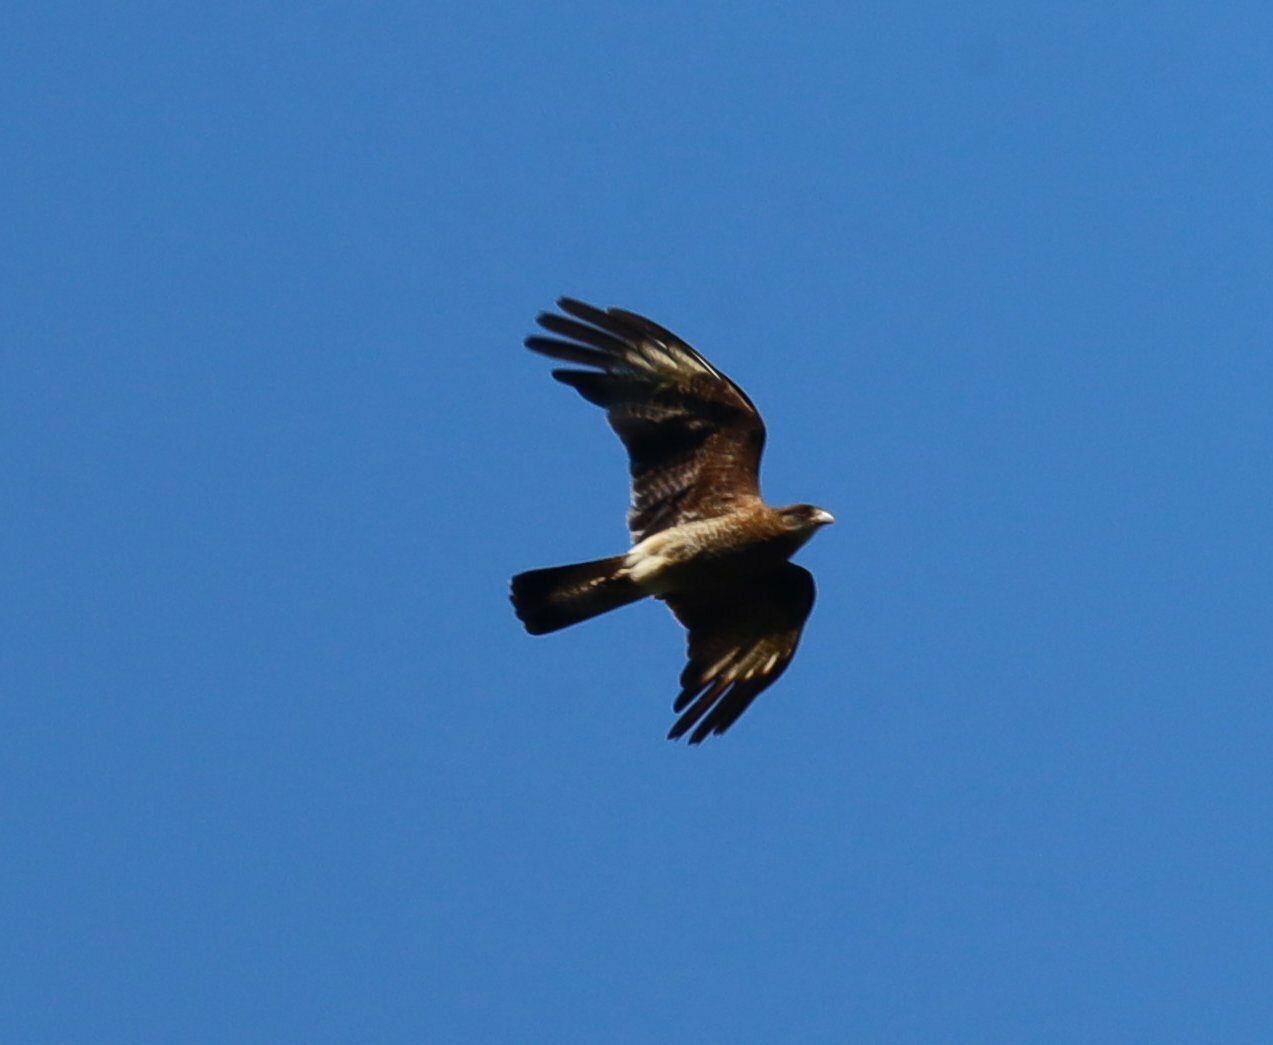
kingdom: Animalia
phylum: Chordata
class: Aves
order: Falconiformes
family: Falconidae
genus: Daptrius
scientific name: Daptrius
